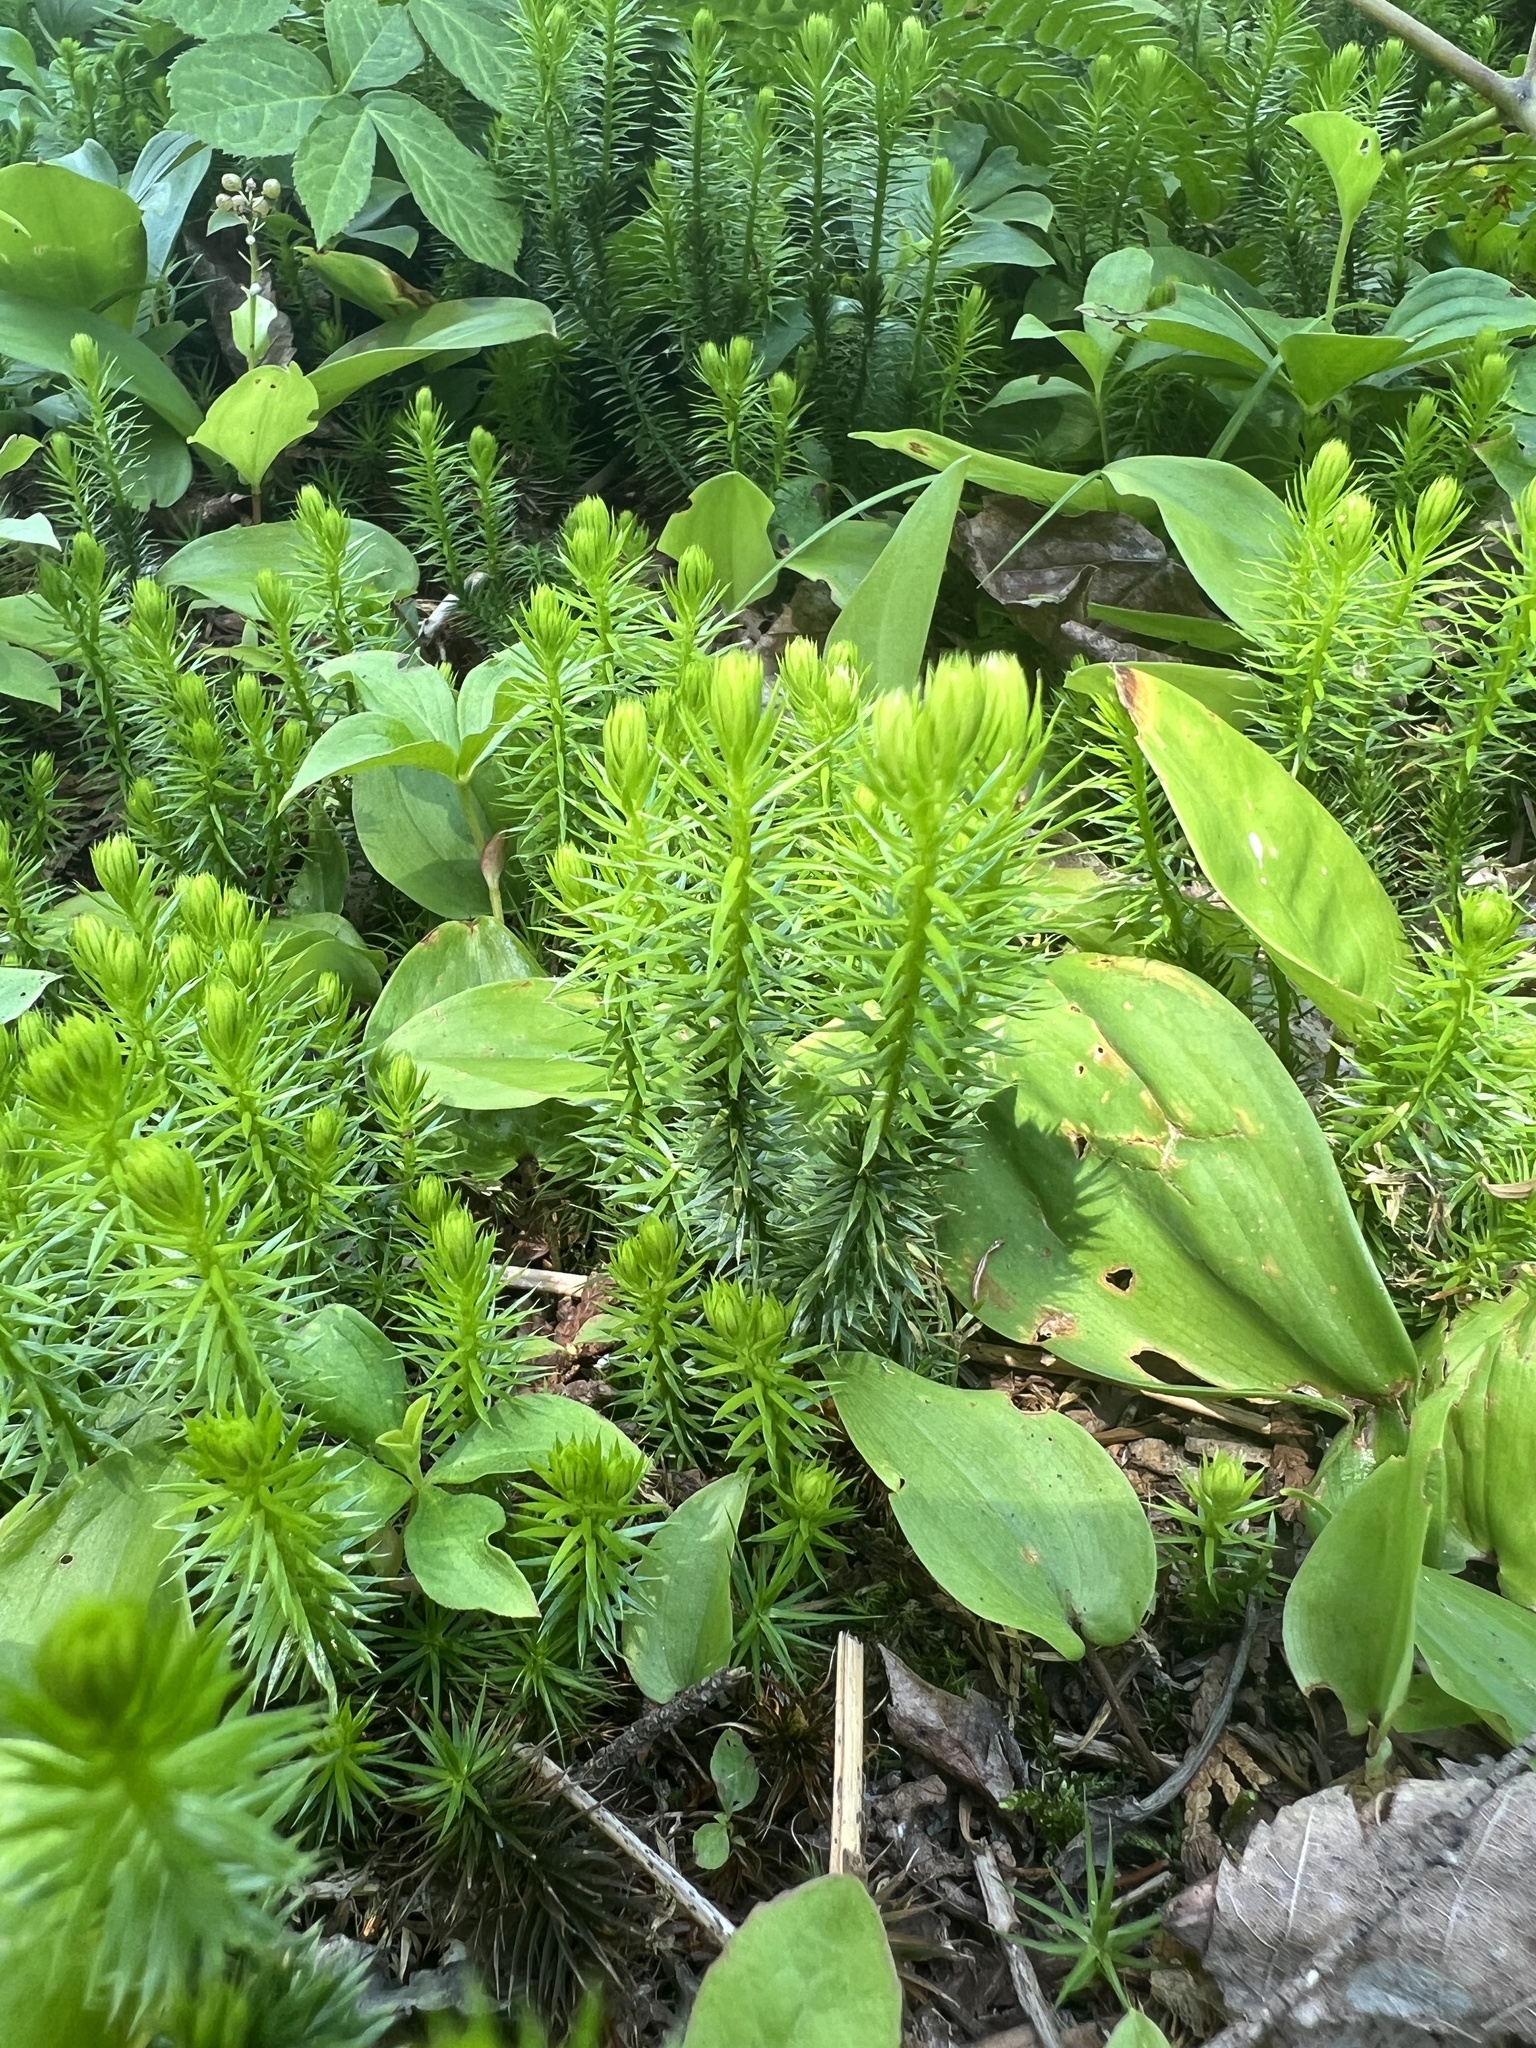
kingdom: Plantae
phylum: Tracheophyta
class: Lycopodiopsida
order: Lycopodiales
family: Lycopodiaceae
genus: Spinulum
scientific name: Spinulum annotinum
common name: Interrupted club-moss
